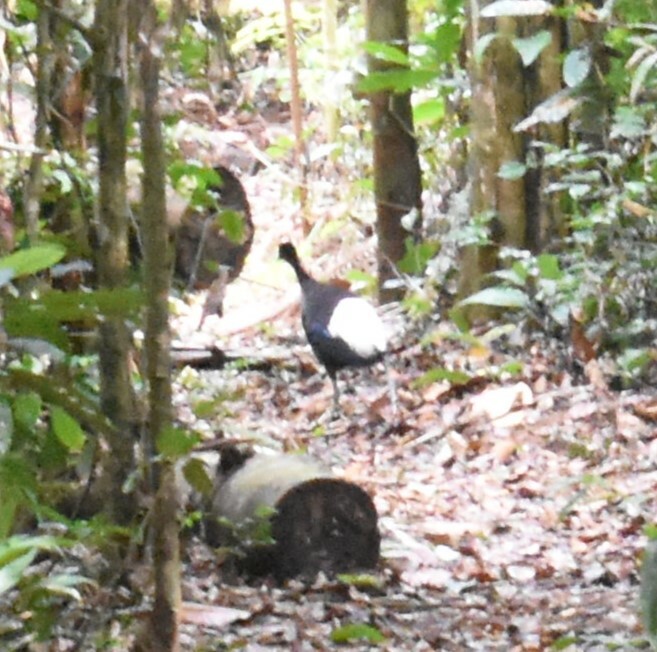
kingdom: Animalia
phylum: Chordata
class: Aves
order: Gruiformes
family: Psophiidae
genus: Psophia
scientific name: Psophia leucoptera
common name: Pale-winged trumpeter
